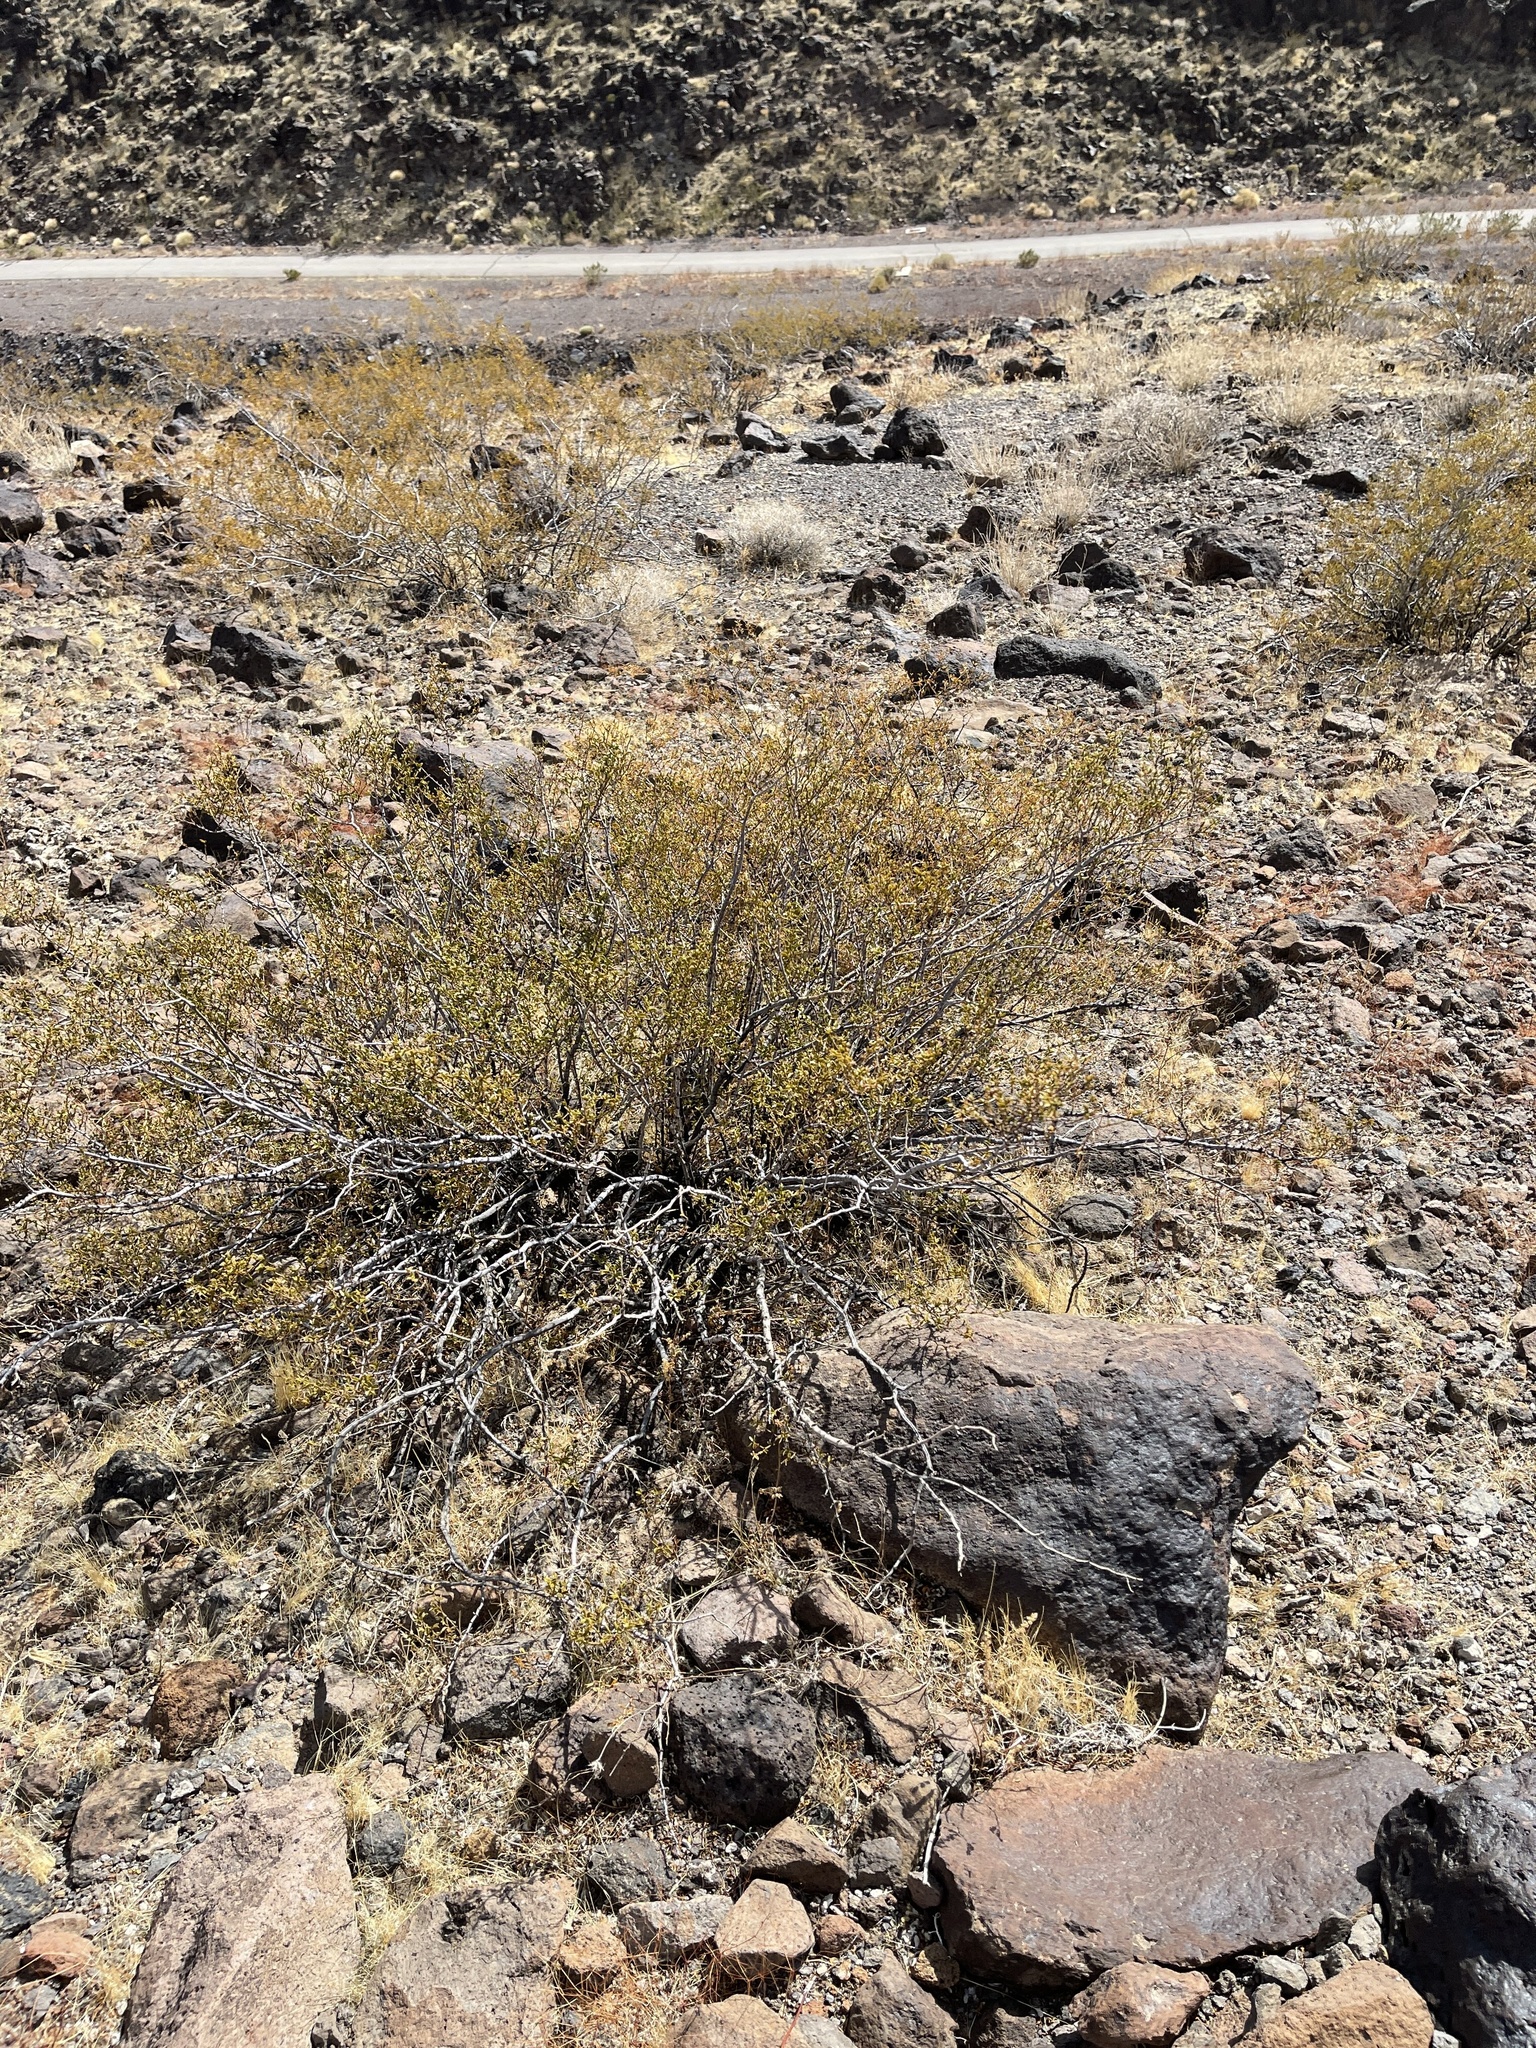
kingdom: Plantae
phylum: Tracheophyta
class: Magnoliopsida
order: Zygophyllales
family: Zygophyllaceae
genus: Larrea
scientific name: Larrea tridentata
